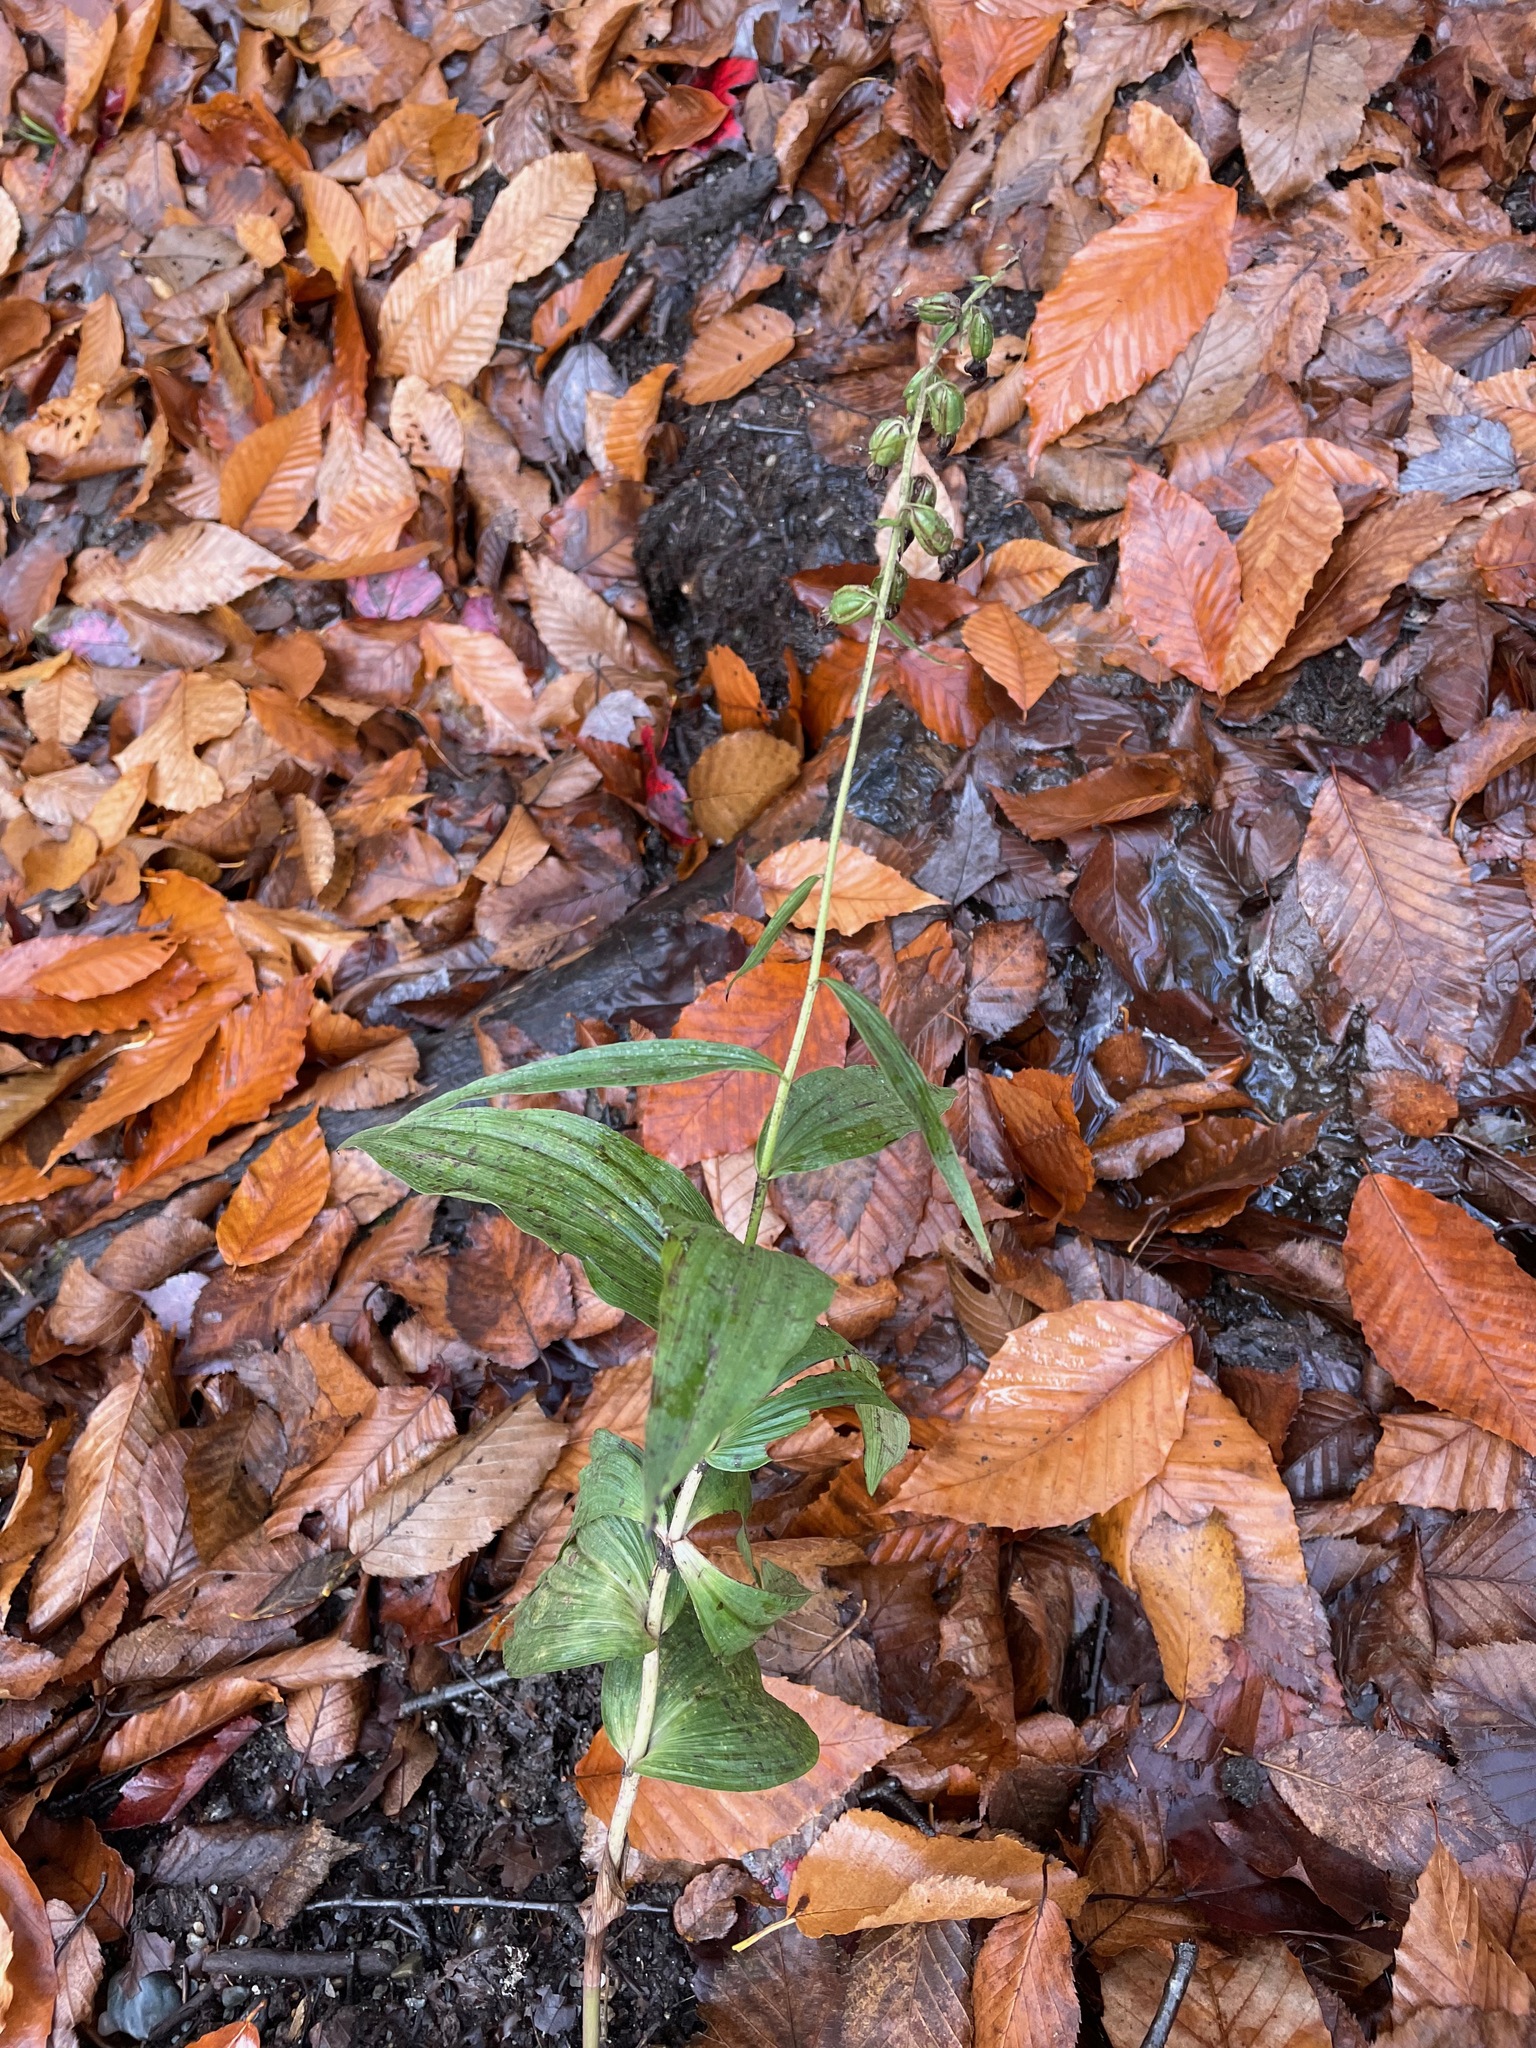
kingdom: Plantae
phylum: Tracheophyta
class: Liliopsida
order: Asparagales
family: Orchidaceae
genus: Epipactis
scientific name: Epipactis helleborine
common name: Broad-leaved helleborine
